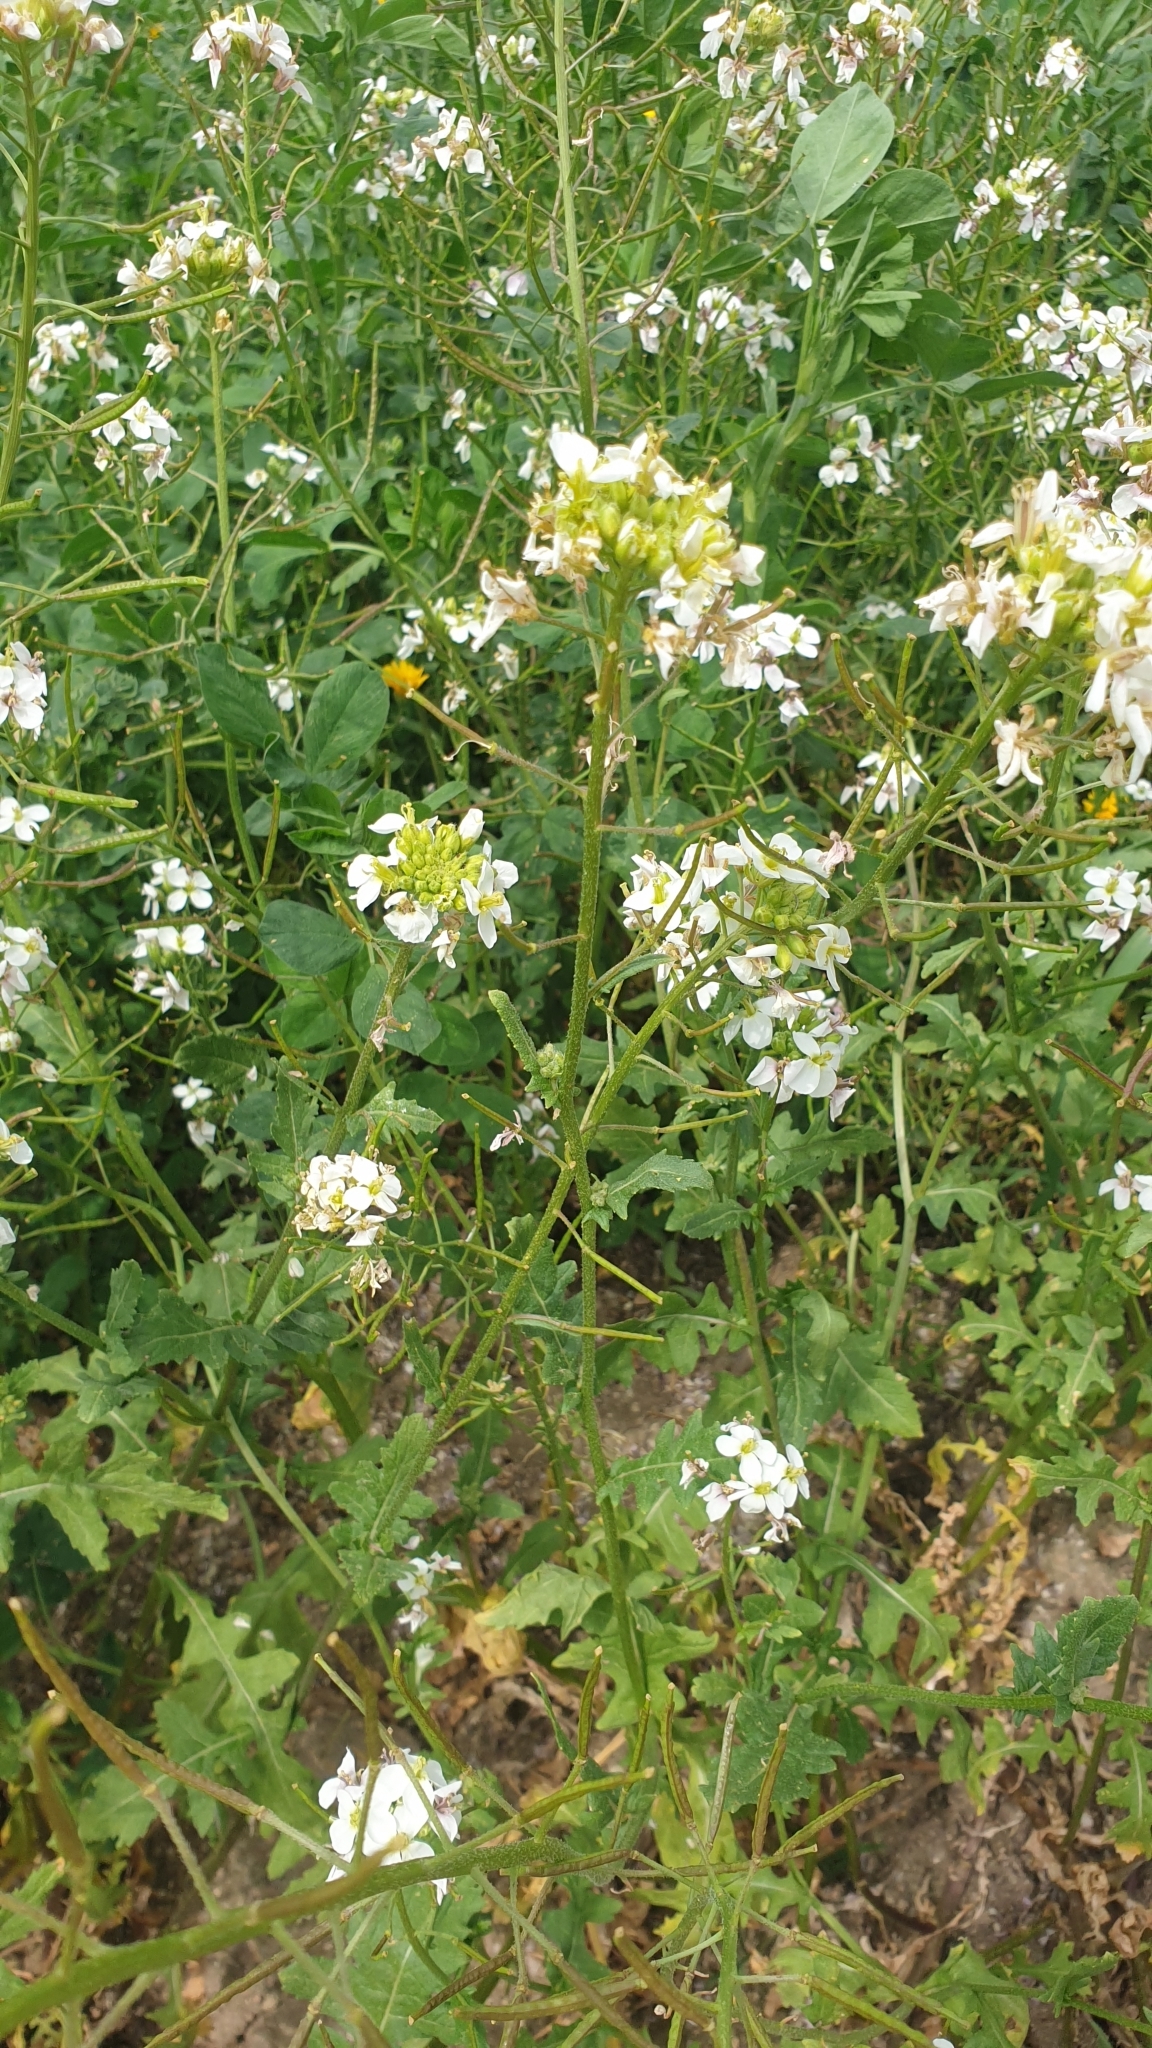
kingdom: Plantae
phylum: Tracheophyta
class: Magnoliopsida
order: Brassicales
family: Brassicaceae
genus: Diplotaxis
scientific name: Diplotaxis erucoides
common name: White rocket
